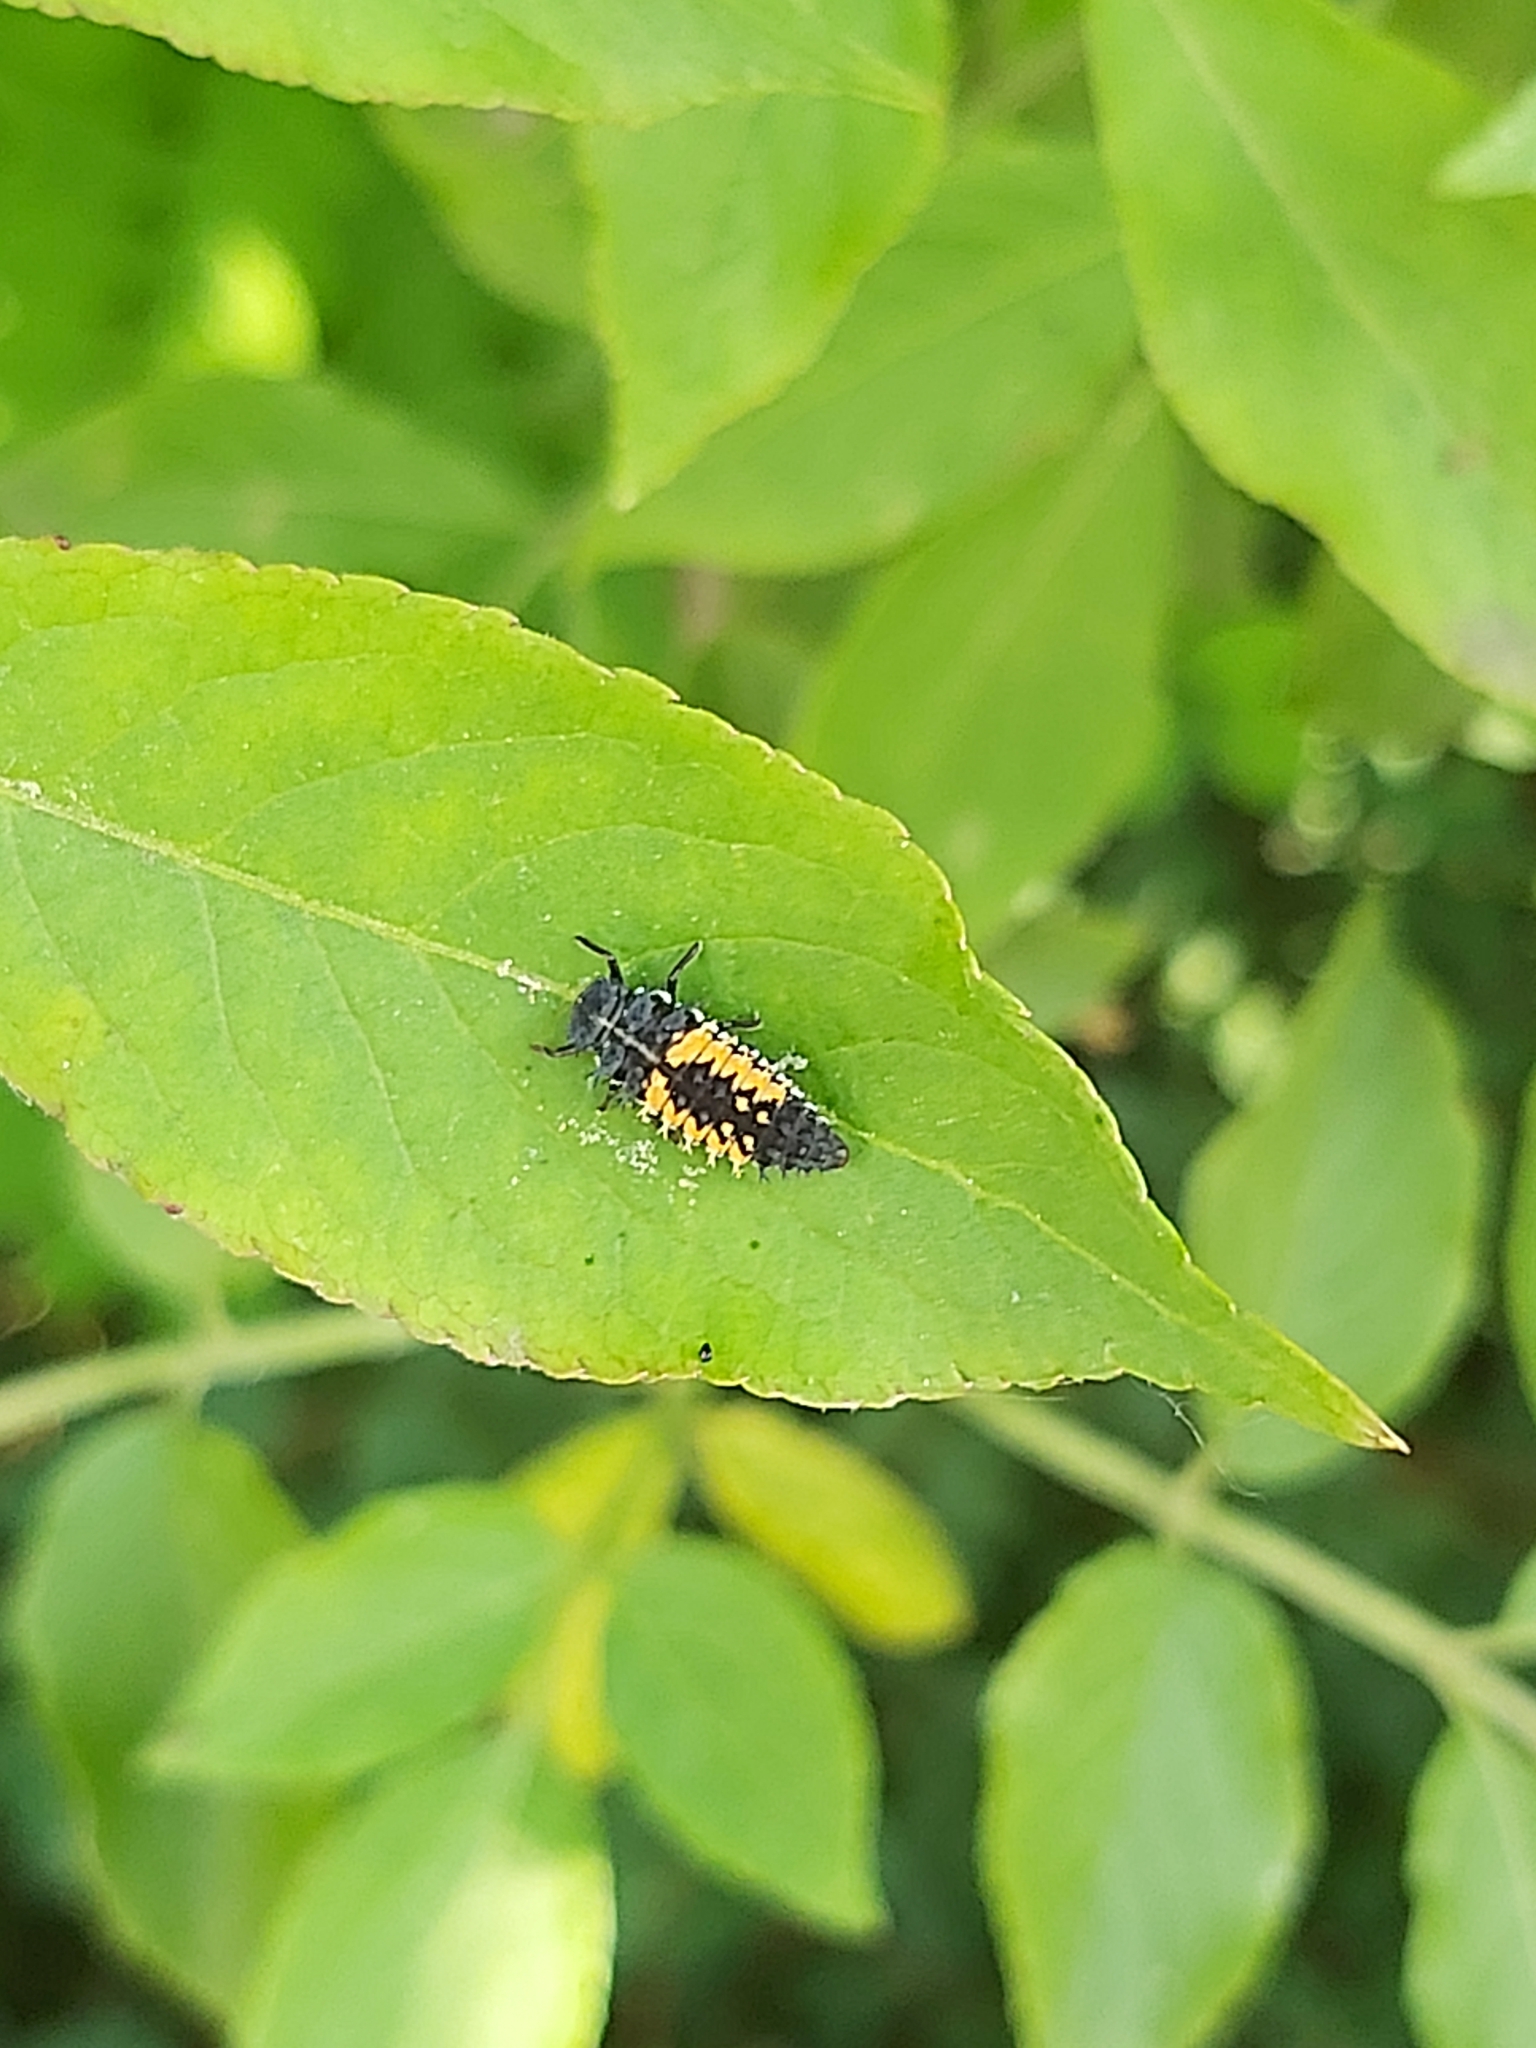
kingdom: Animalia
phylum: Arthropoda
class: Insecta
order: Coleoptera
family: Coccinellidae
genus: Harmonia
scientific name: Harmonia axyridis
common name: Harlequin ladybird
